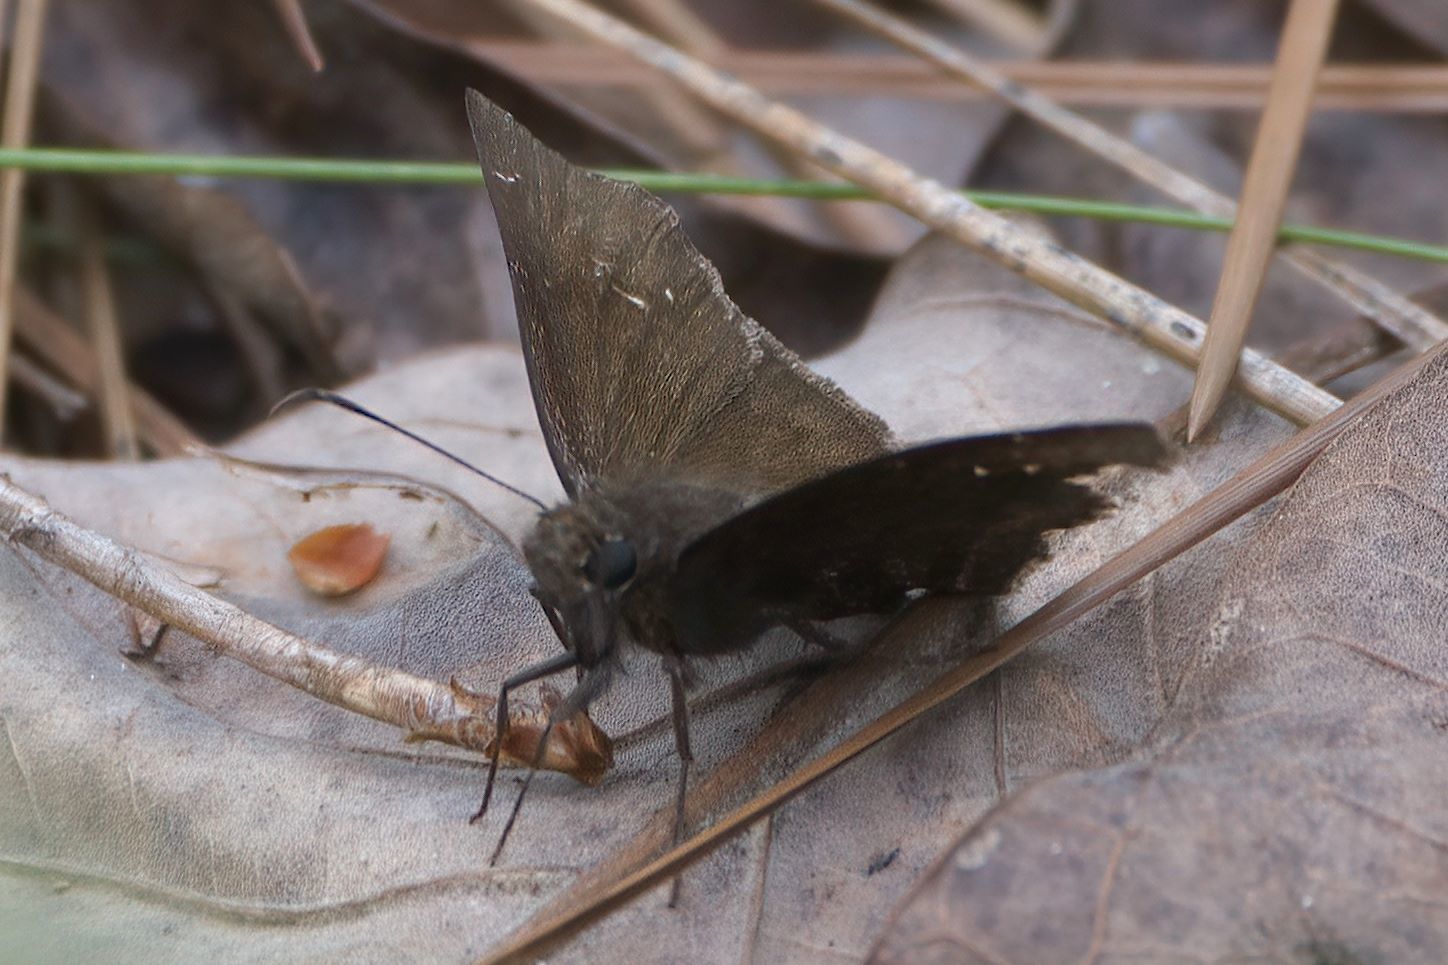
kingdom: Animalia
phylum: Arthropoda
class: Insecta
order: Lepidoptera
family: Hesperiidae
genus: Thorybes
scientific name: Thorybes pylades
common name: Northern cloudywing
